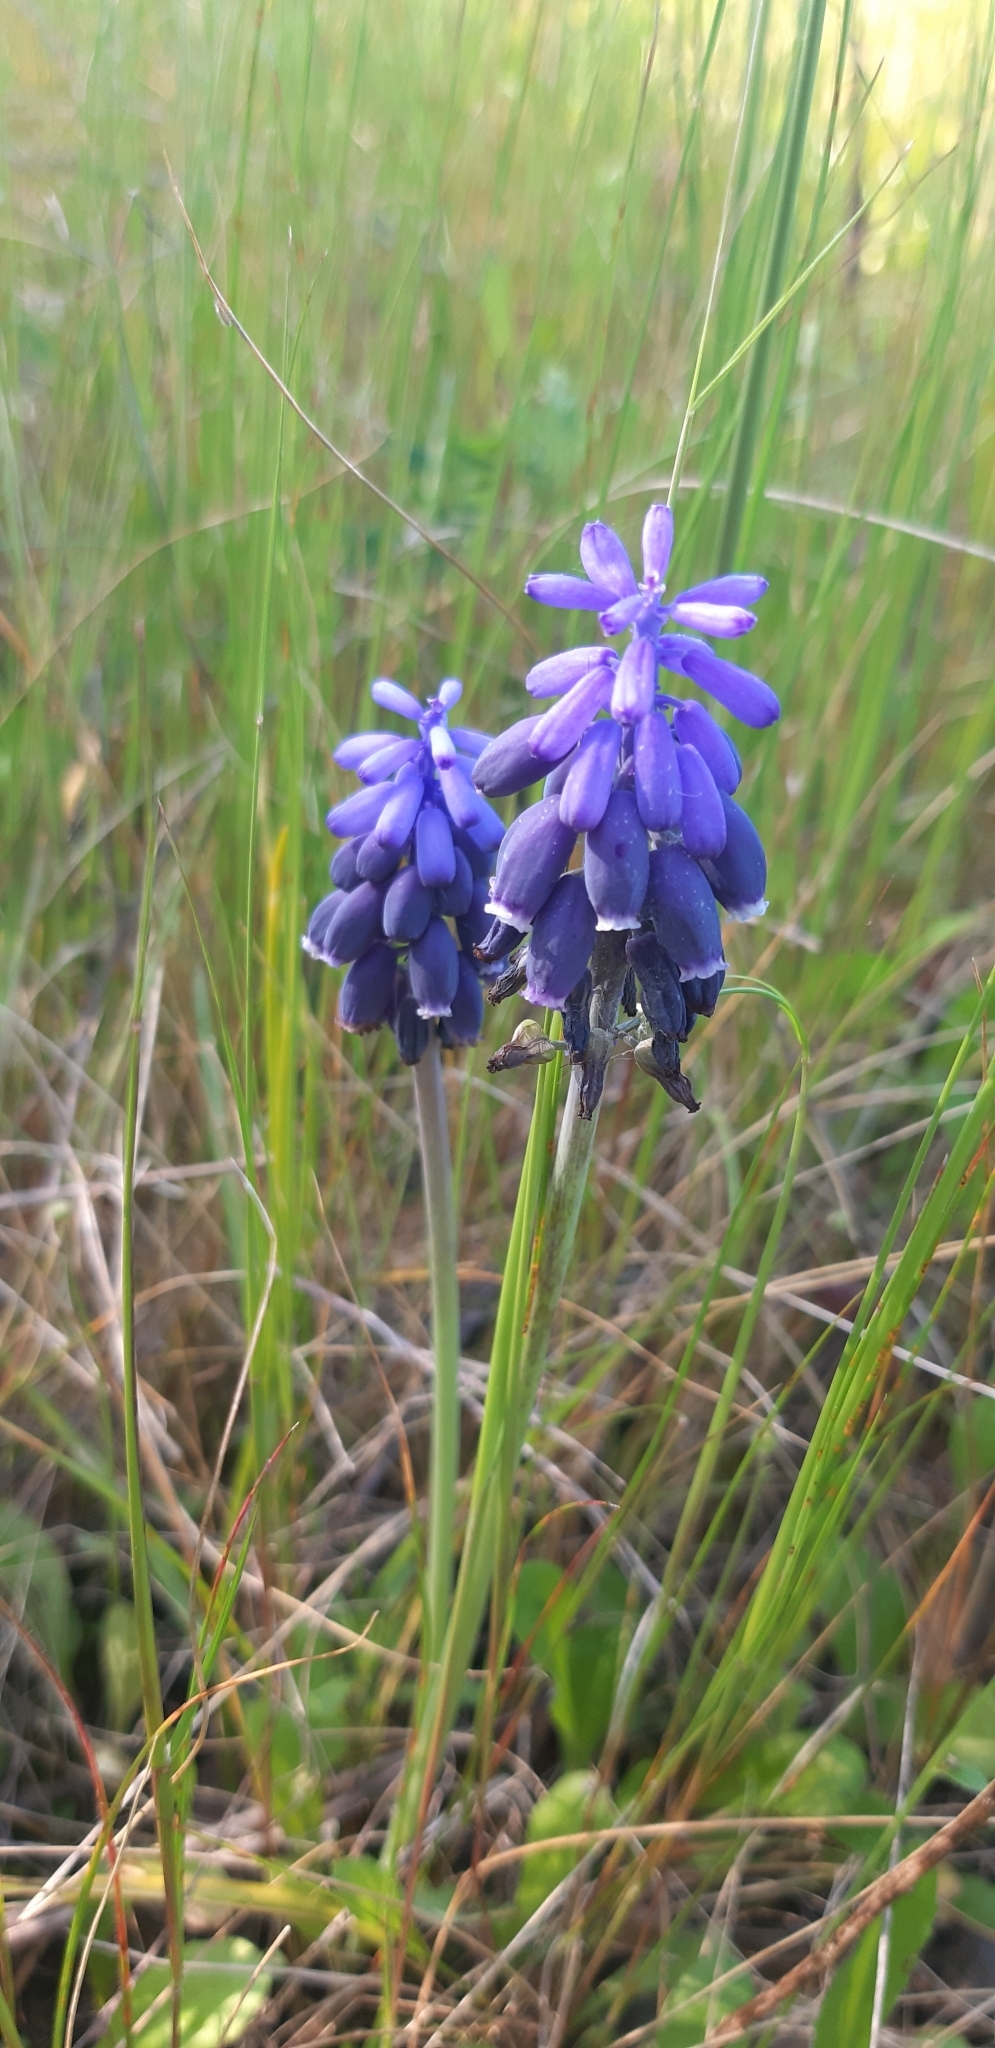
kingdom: Plantae
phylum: Tracheophyta
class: Liliopsida
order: Asparagales
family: Asparagaceae
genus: Muscari
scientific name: Muscari neglectum
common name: Grape-hyacinth
